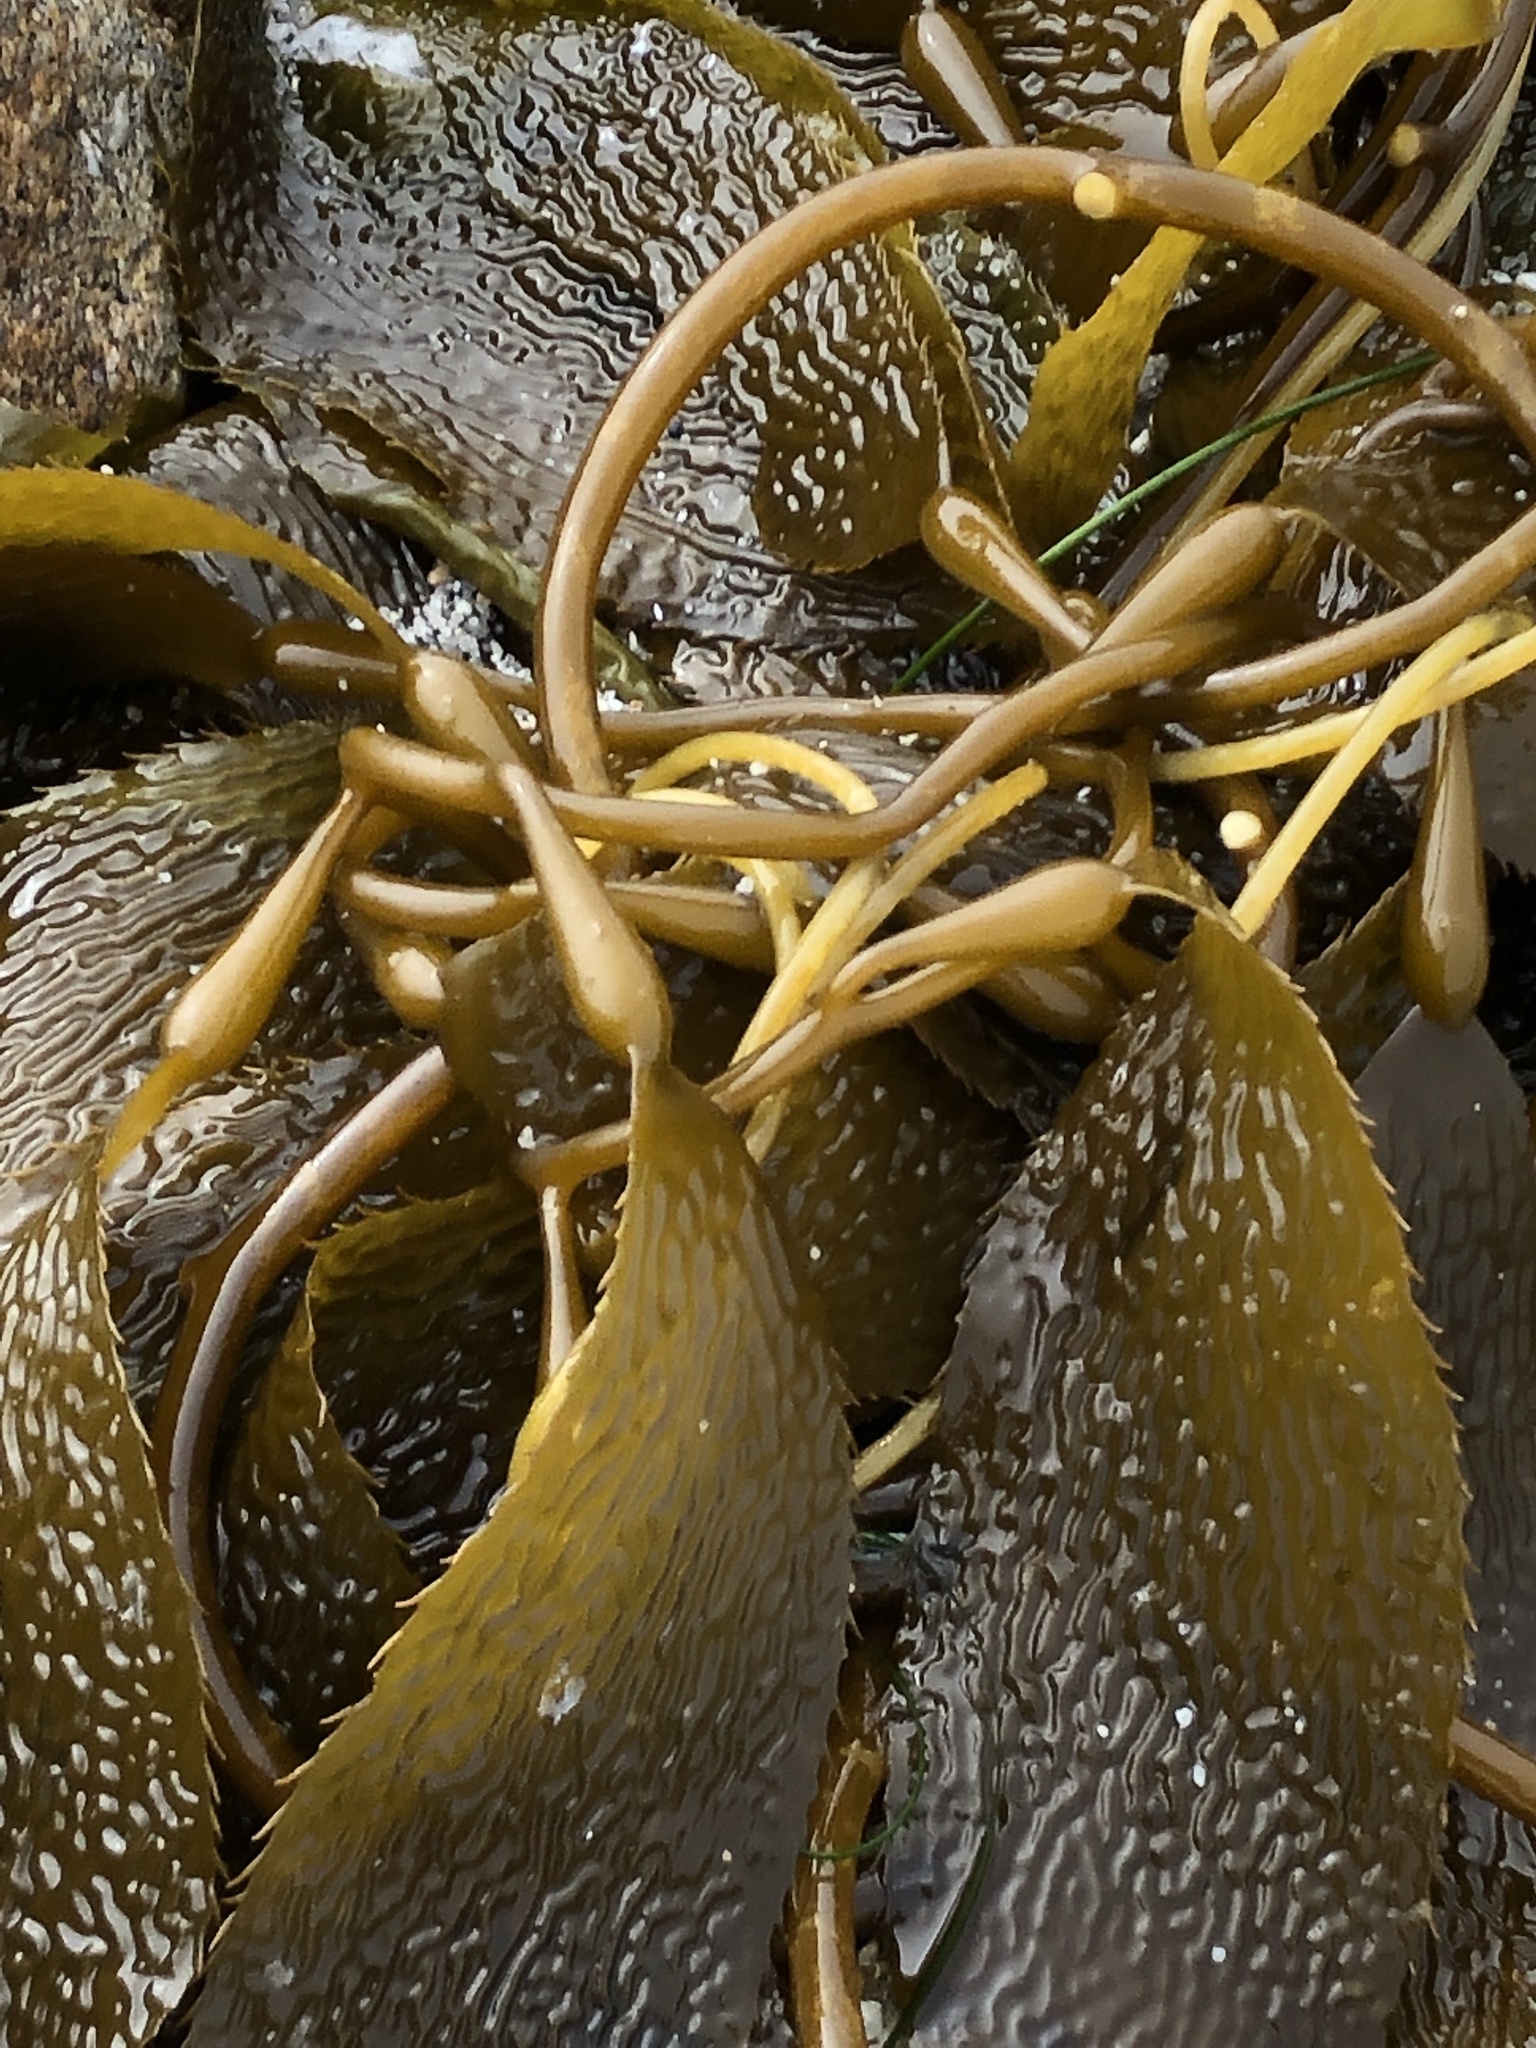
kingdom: Chromista
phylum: Ochrophyta
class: Phaeophyceae
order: Laminariales
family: Laminariaceae
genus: Macrocystis
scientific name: Macrocystis pyrifera
